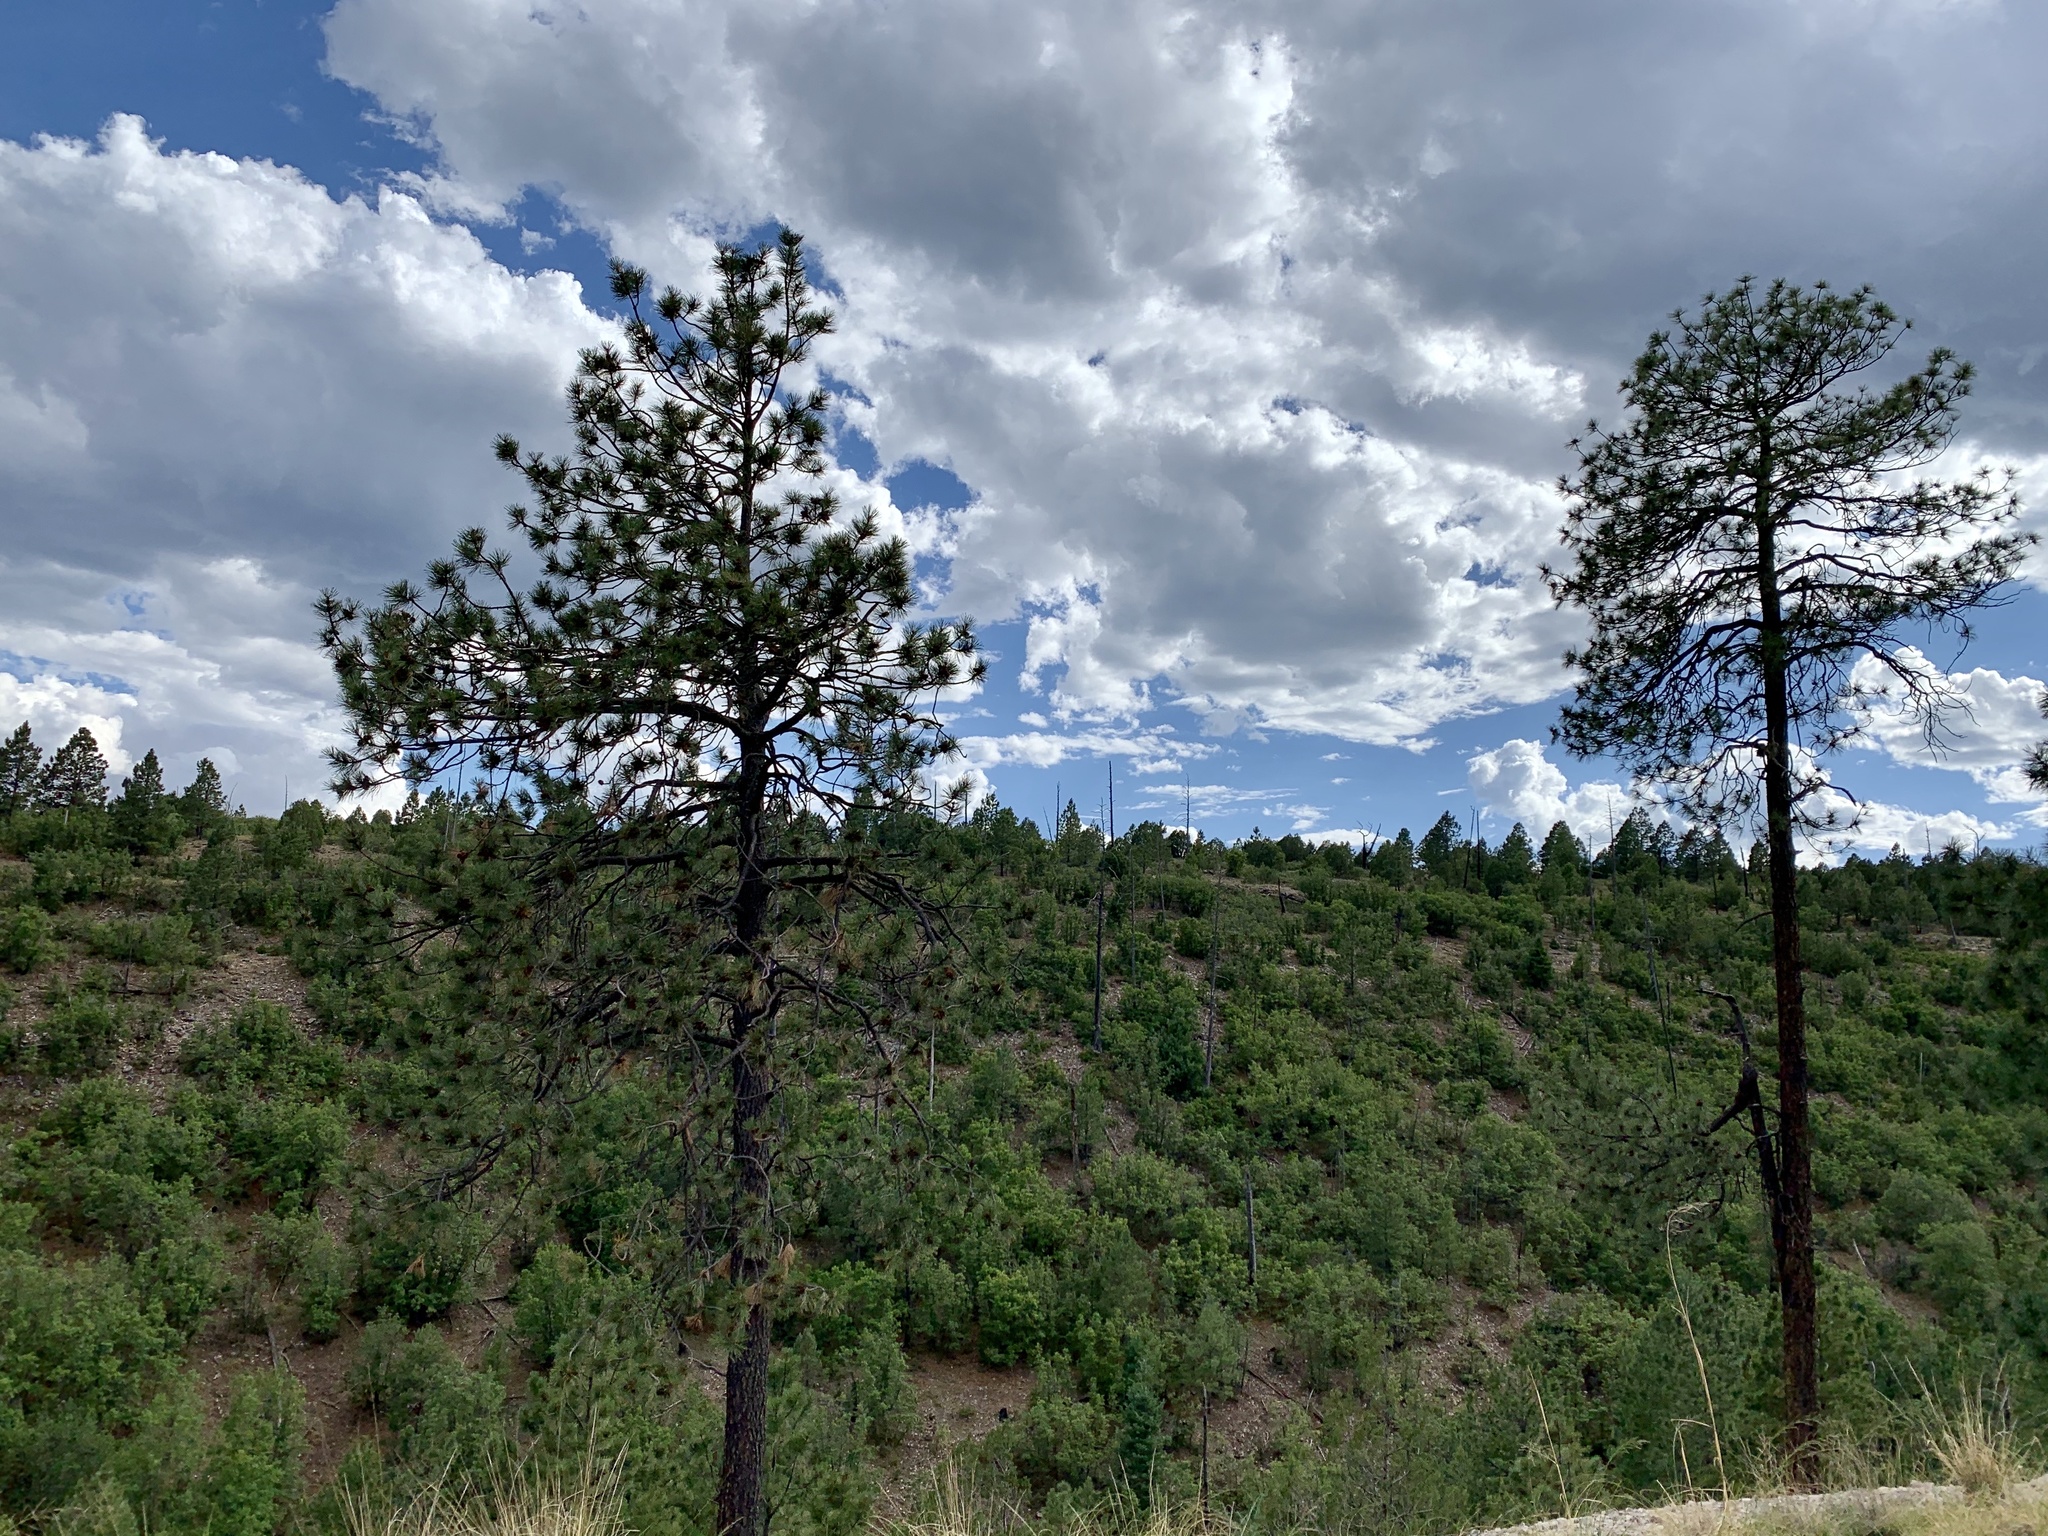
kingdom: Plantae
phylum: Tracheophyta
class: Pinopsida
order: Pinales
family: Pinaceae
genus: Pinus
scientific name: Pinus ponderosa
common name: Western yellow-pine
